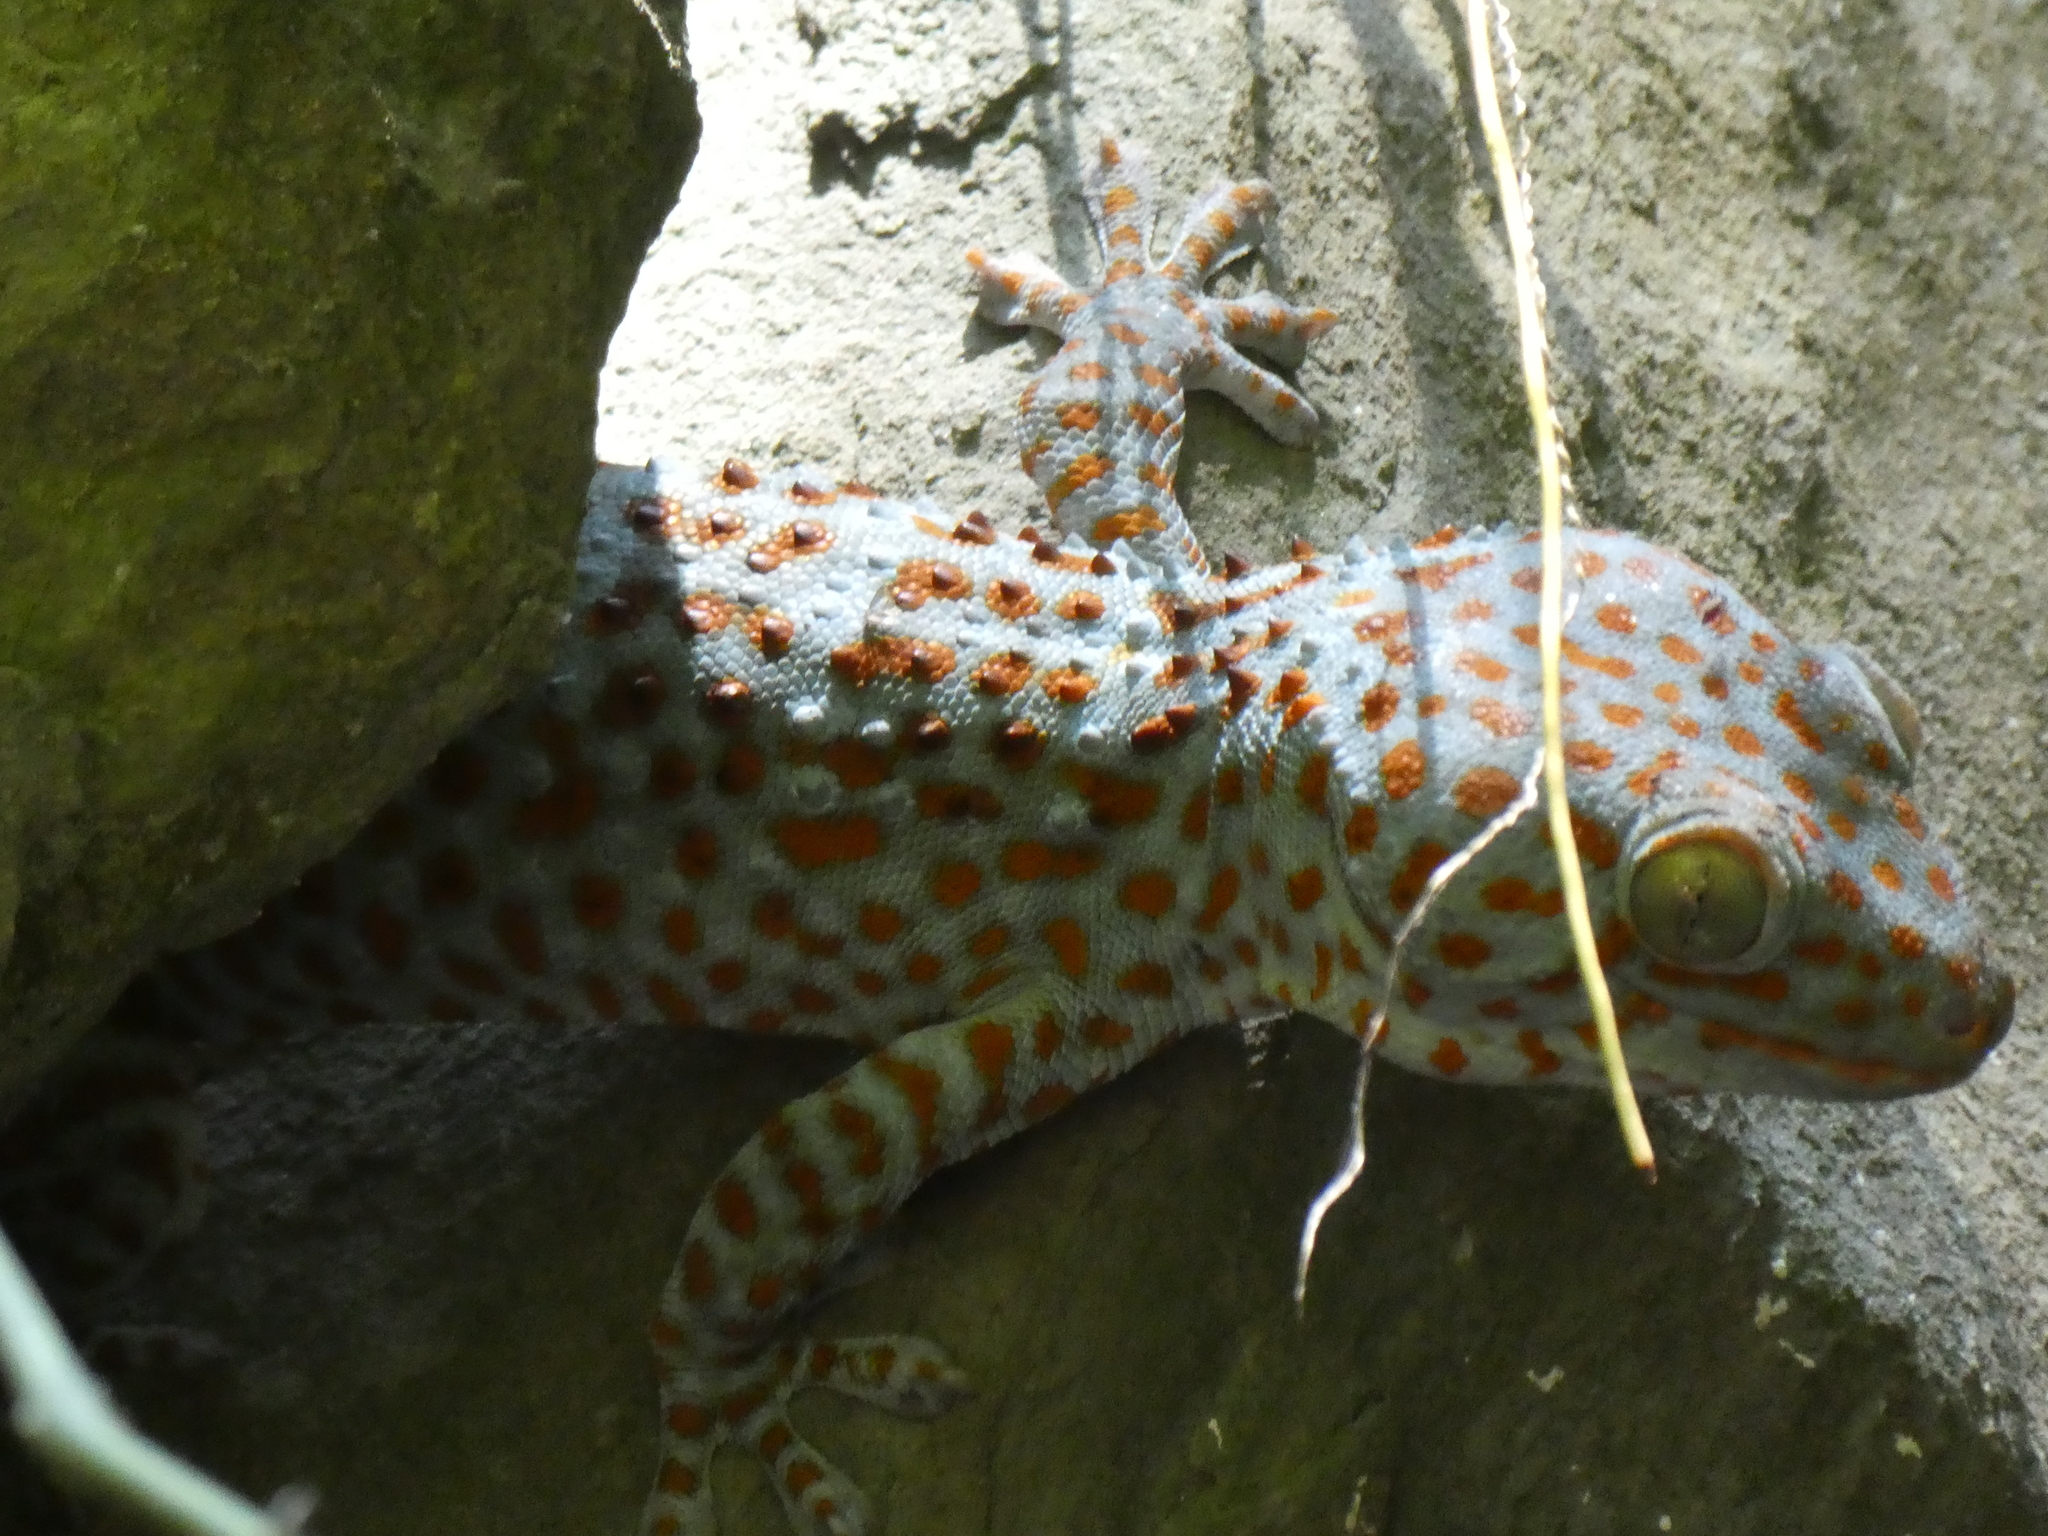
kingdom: Animalia
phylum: Chordata
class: Squamata
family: Gekkonidae
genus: Gekko
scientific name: Gekko gecko
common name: Tokay gecko
